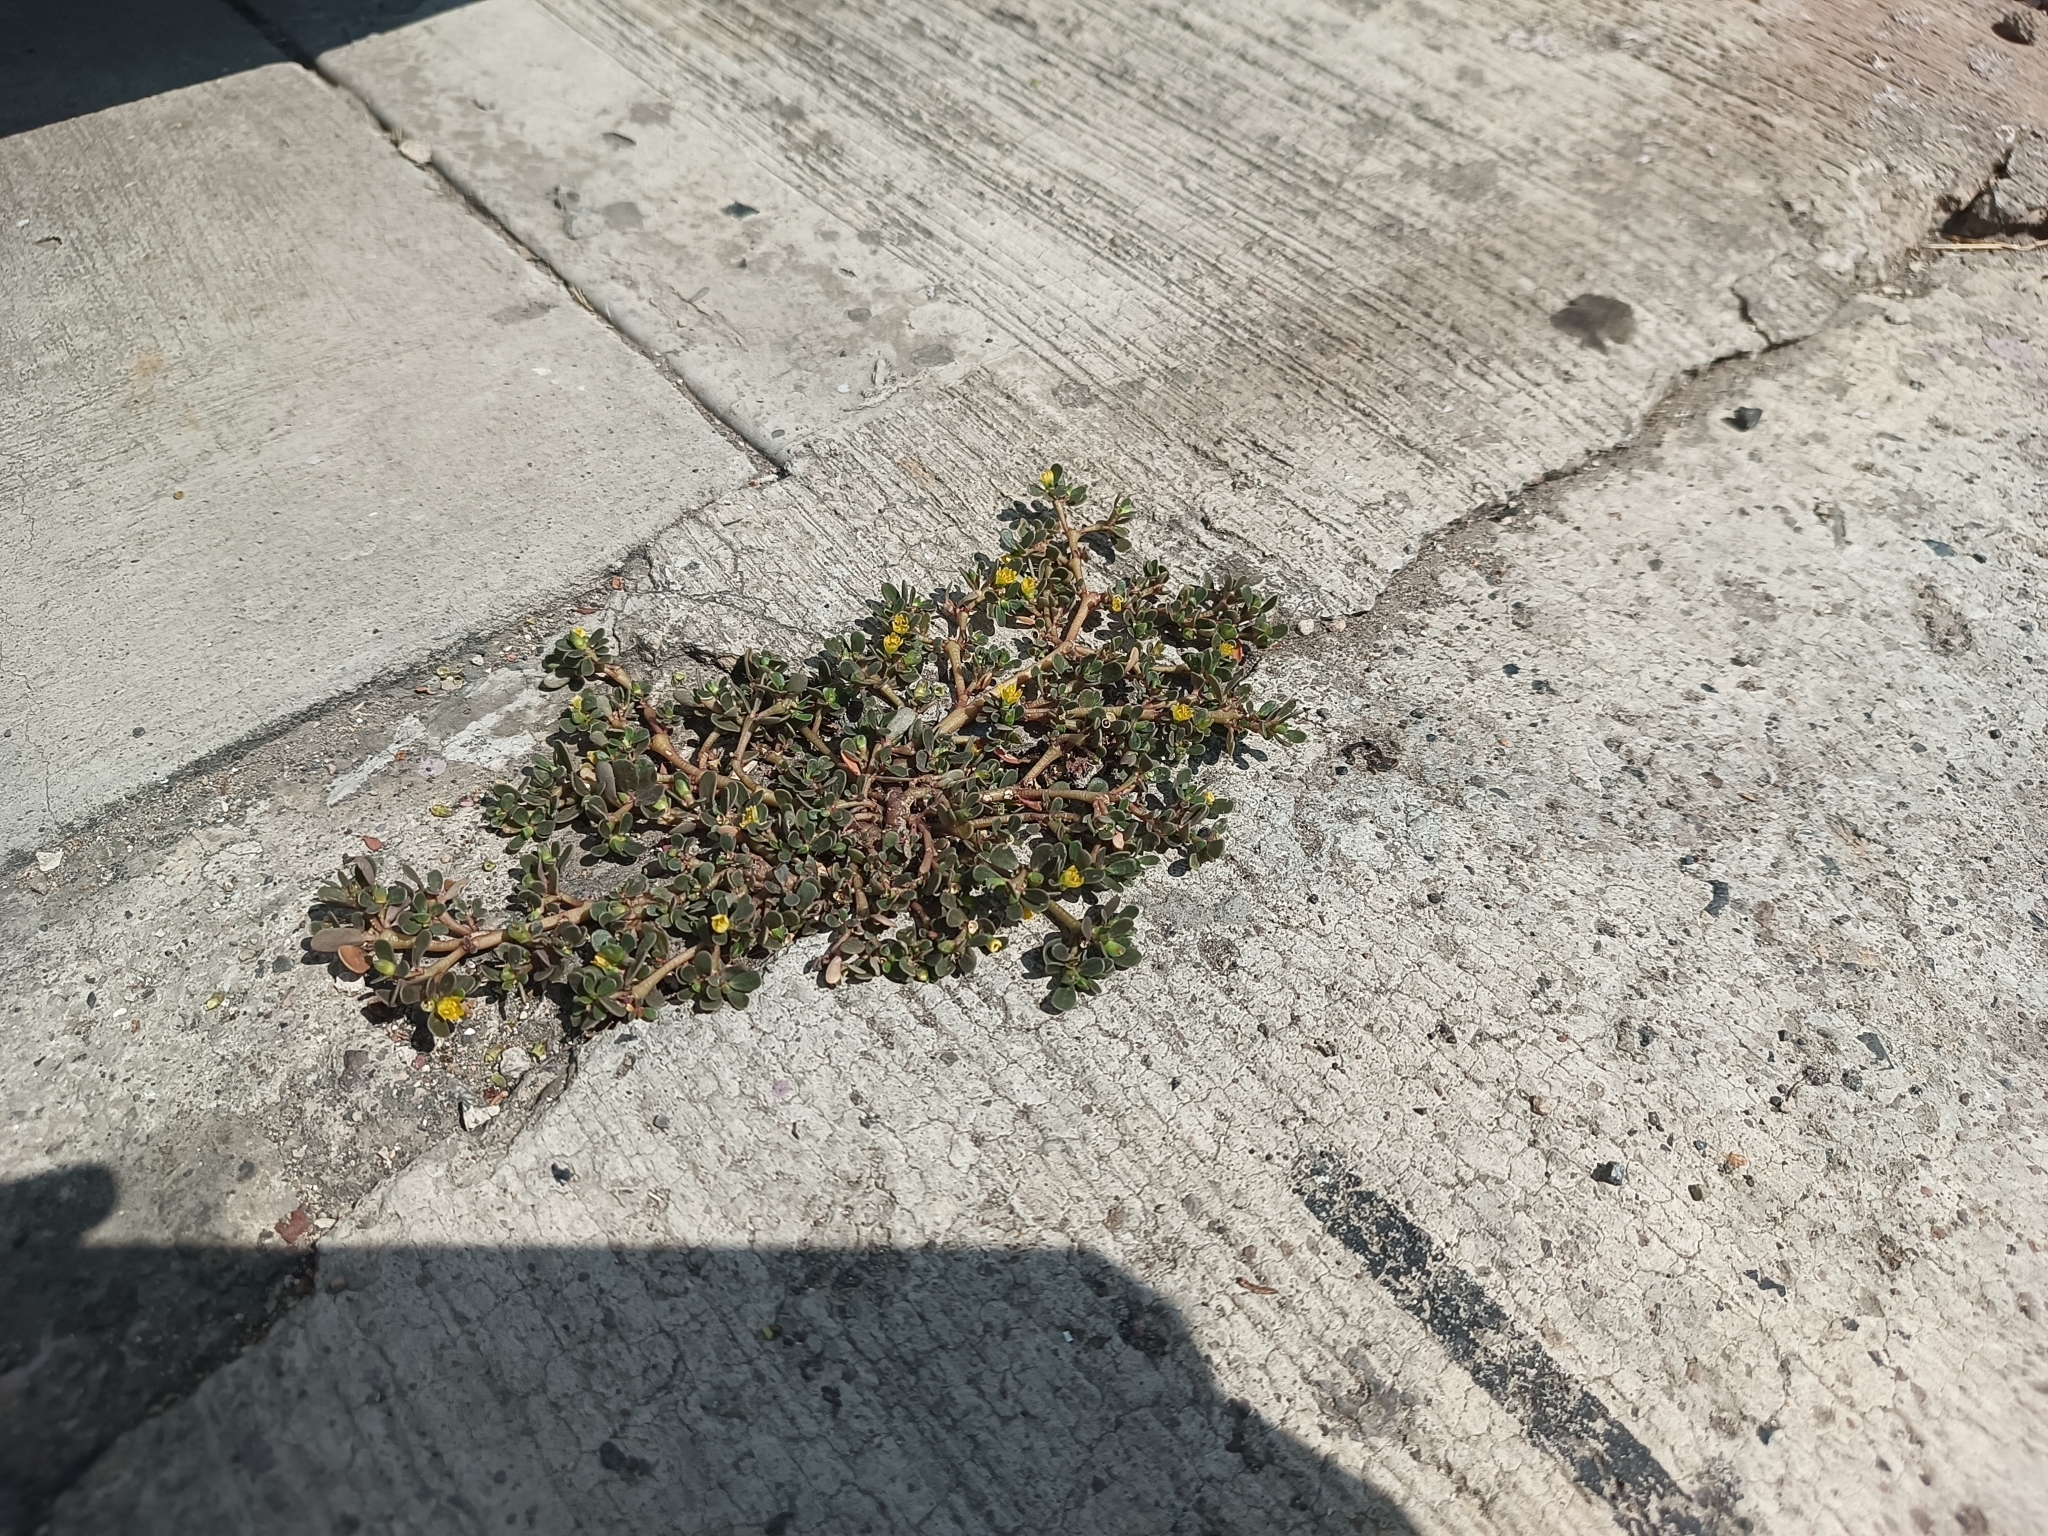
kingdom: Plantae
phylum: Tracheophyta
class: Magnoliopsida
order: Caryophyllales
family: Portulacaceae
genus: Portulaca
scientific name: Portulaca oleracea
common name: Common purslane
